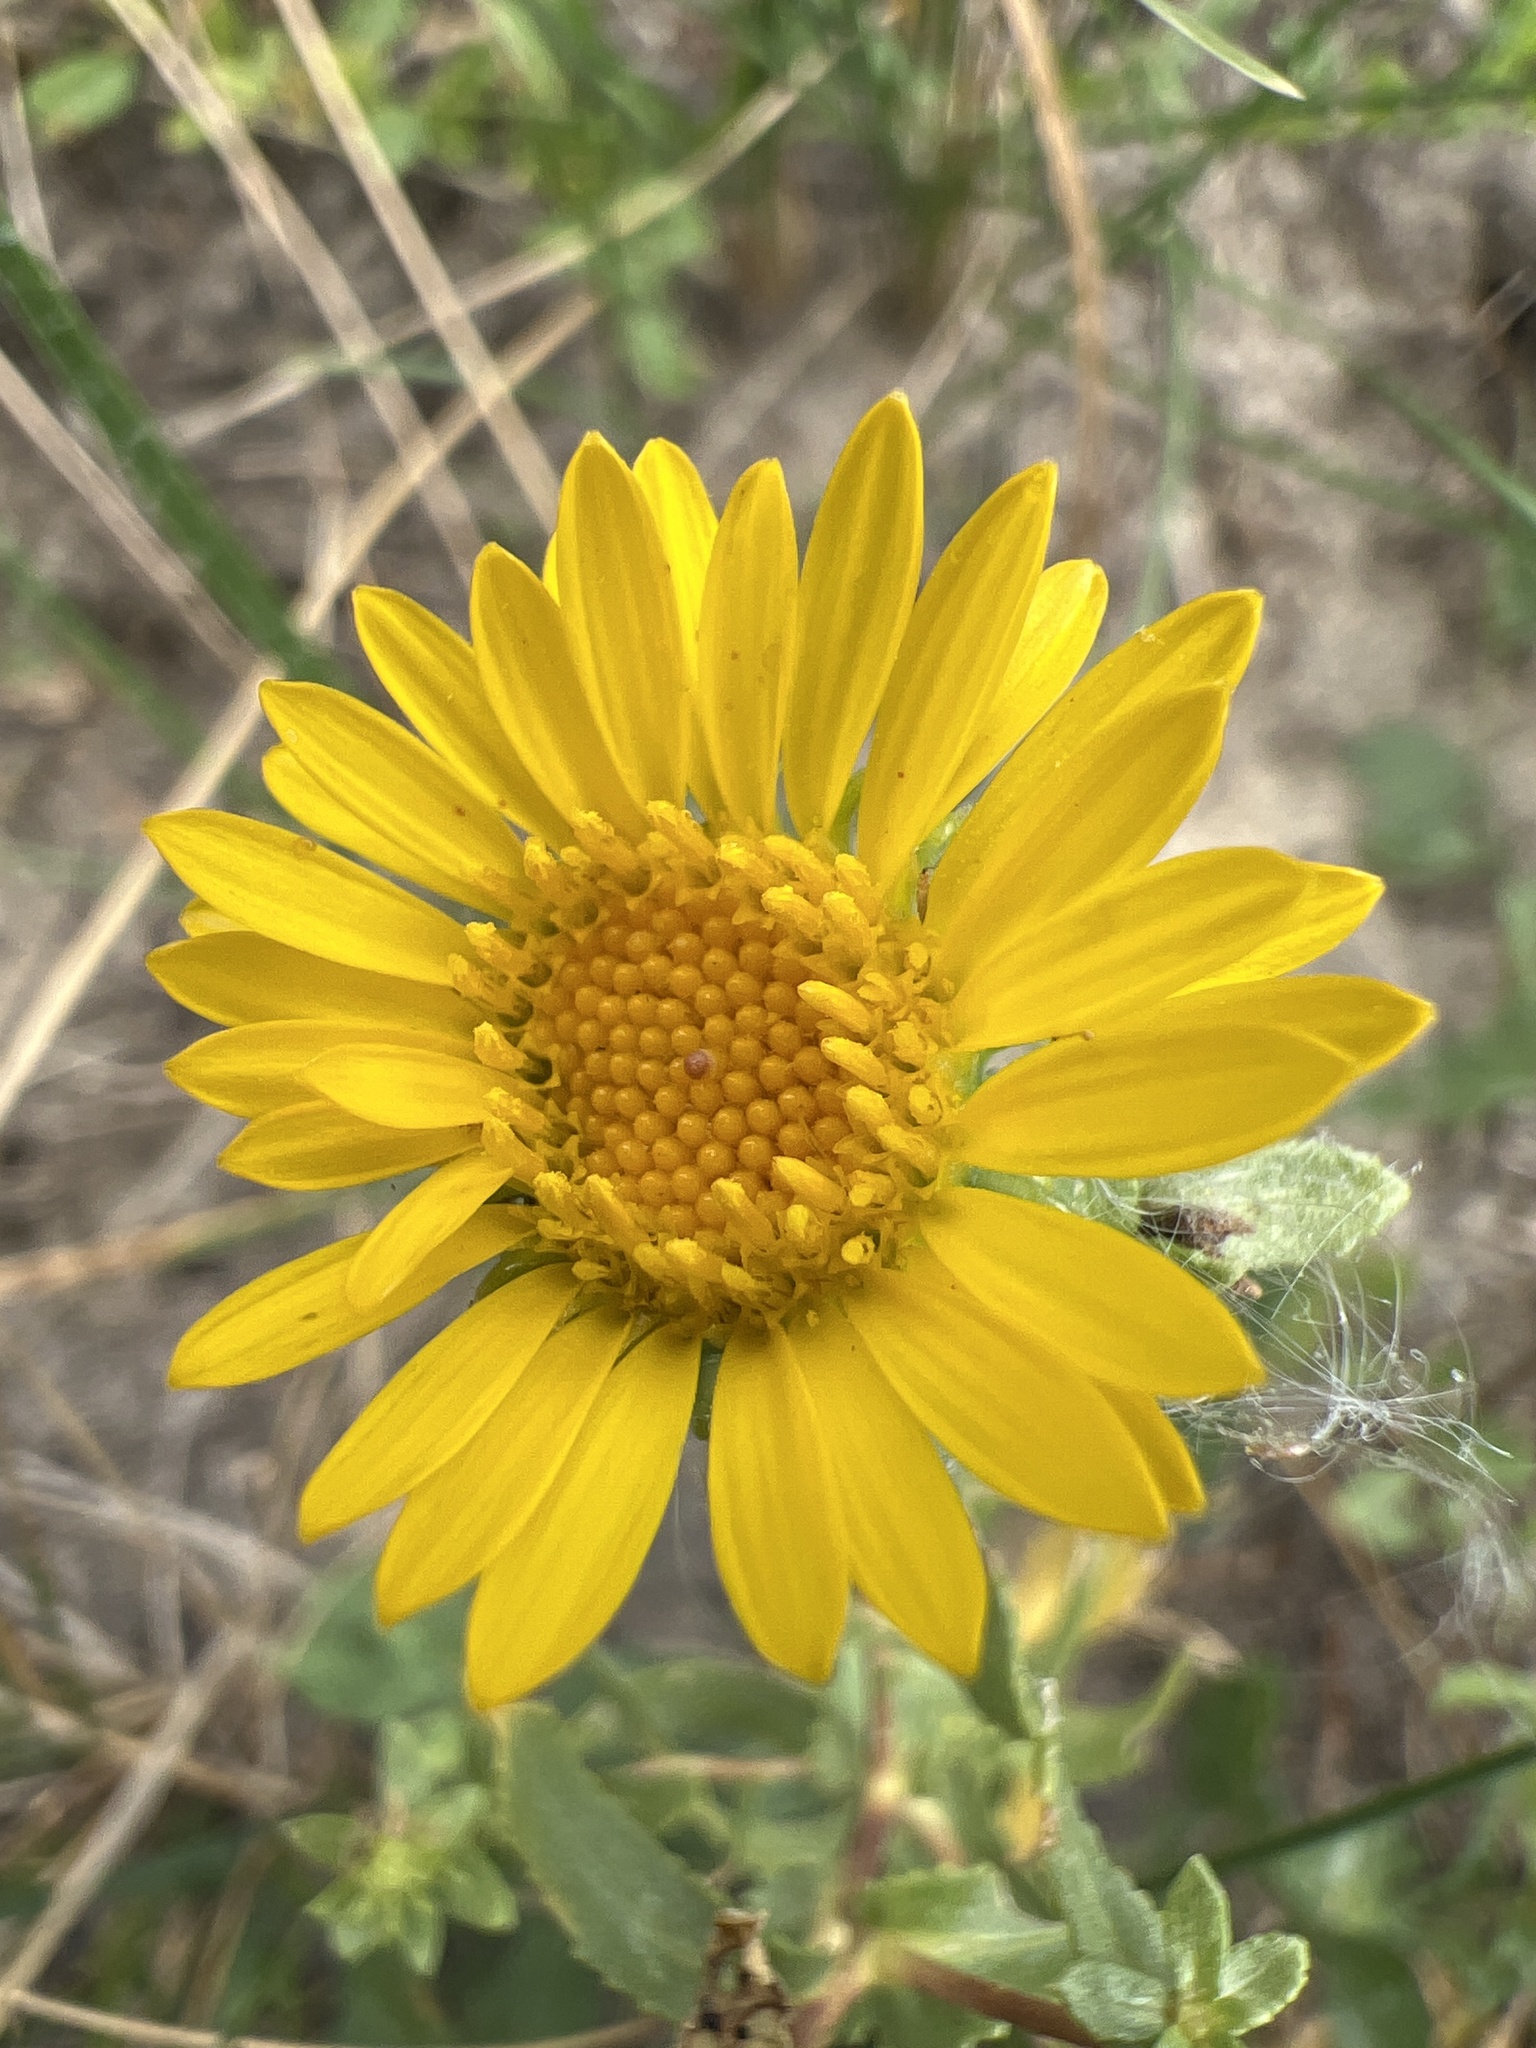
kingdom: Plantae
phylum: Tracheophyta
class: Magnoliopsida
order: Asterales
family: Asteraceae
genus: Grindelia
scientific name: Grindelia squarrosa
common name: Curly-cup gumweed
